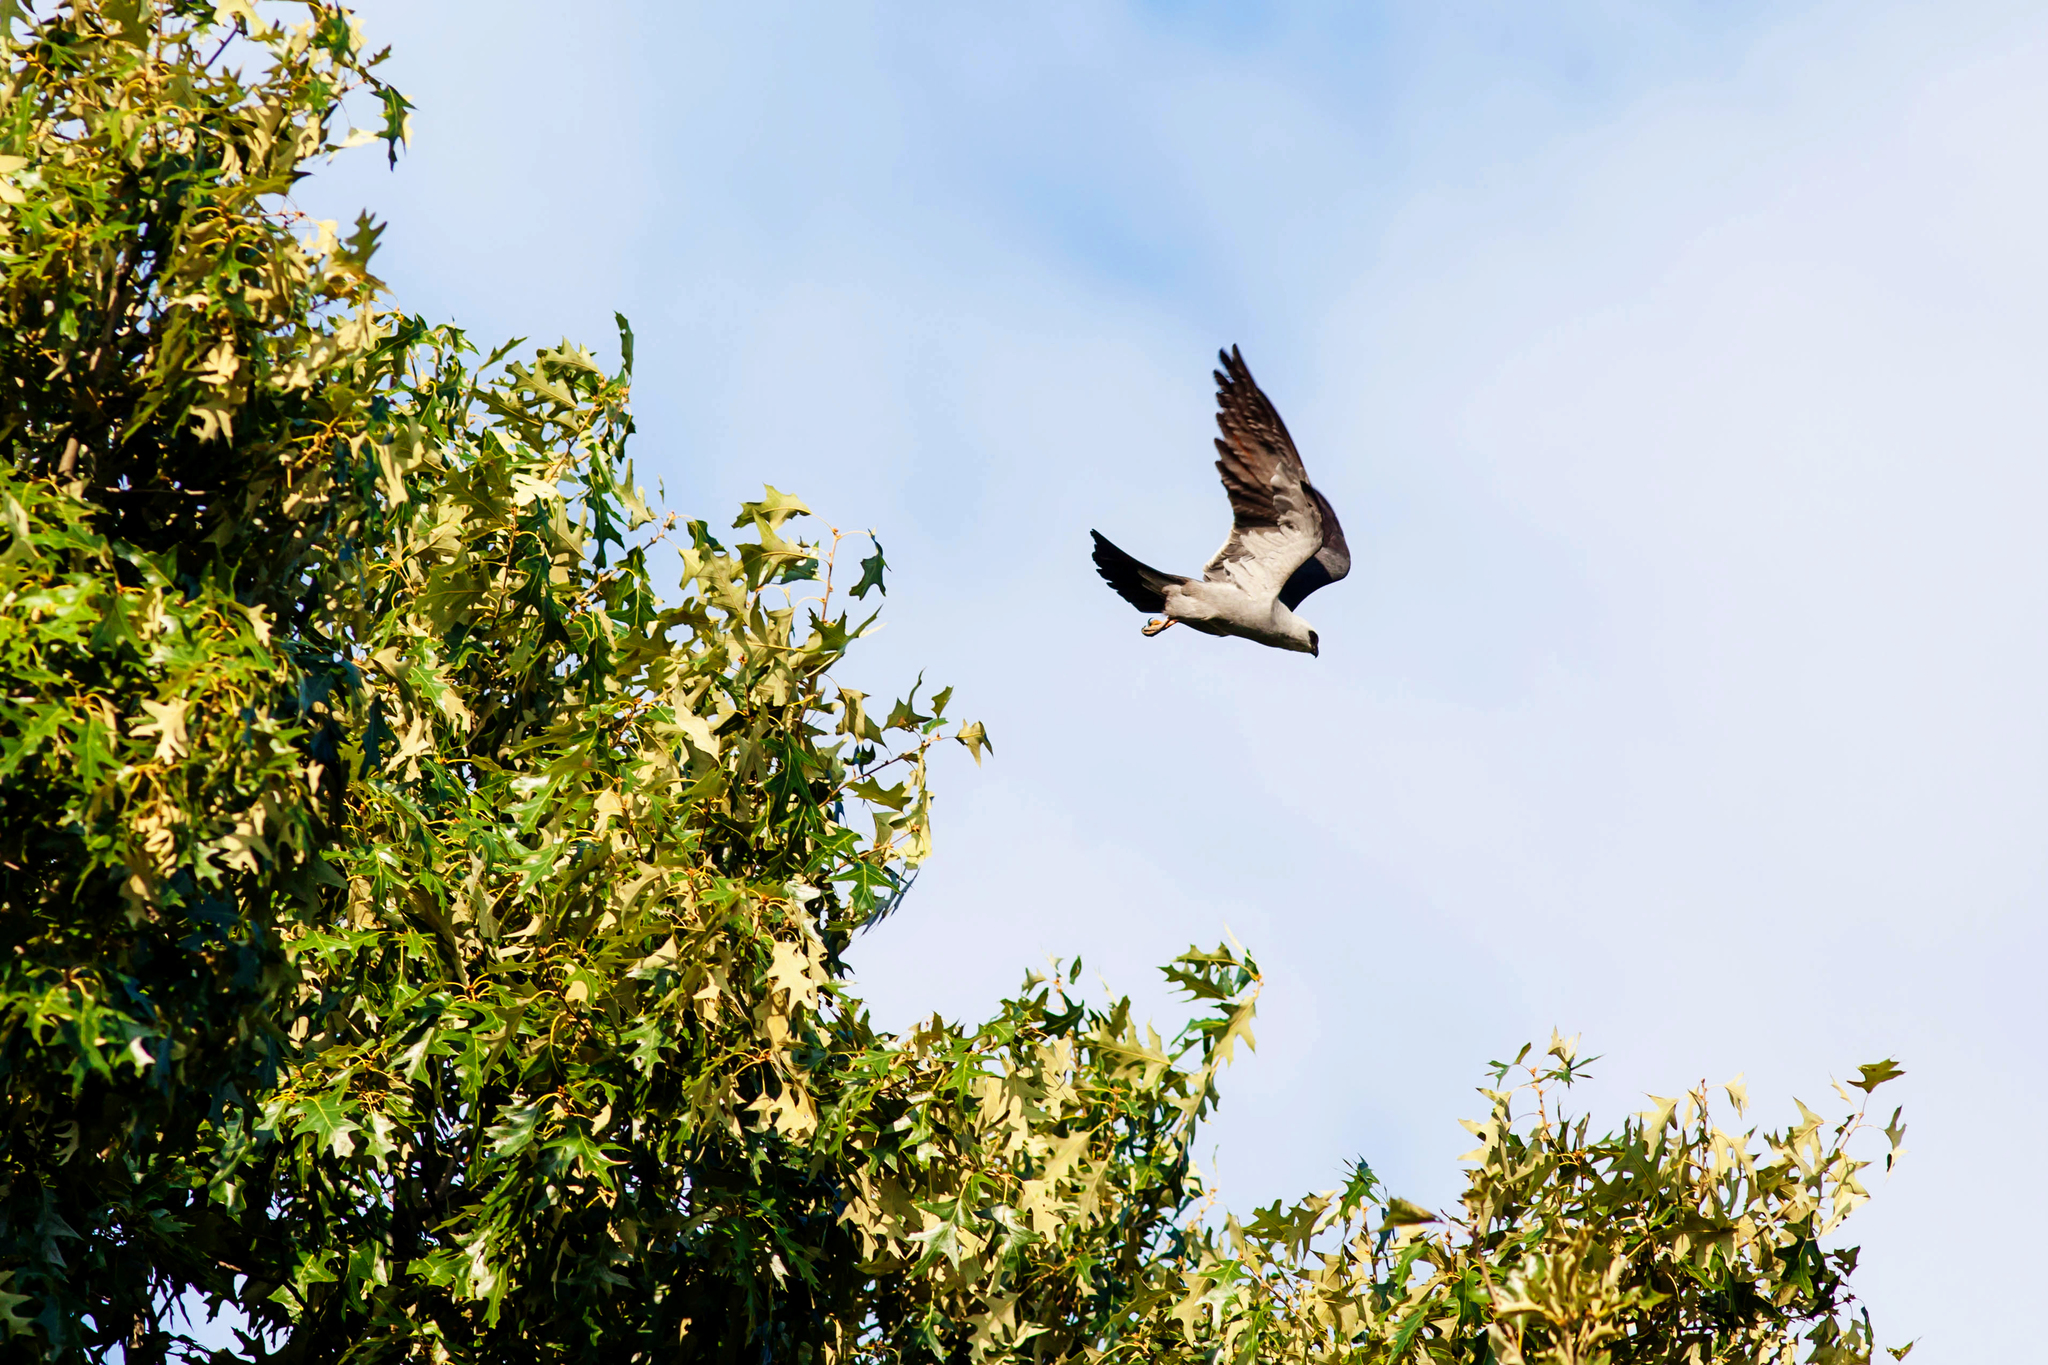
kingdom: Animalia
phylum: Chordata
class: Aves
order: Accipitriformes
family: Accipitridae
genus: Ictinia
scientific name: Ictinia mississippiensis
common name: Mississippi kite
